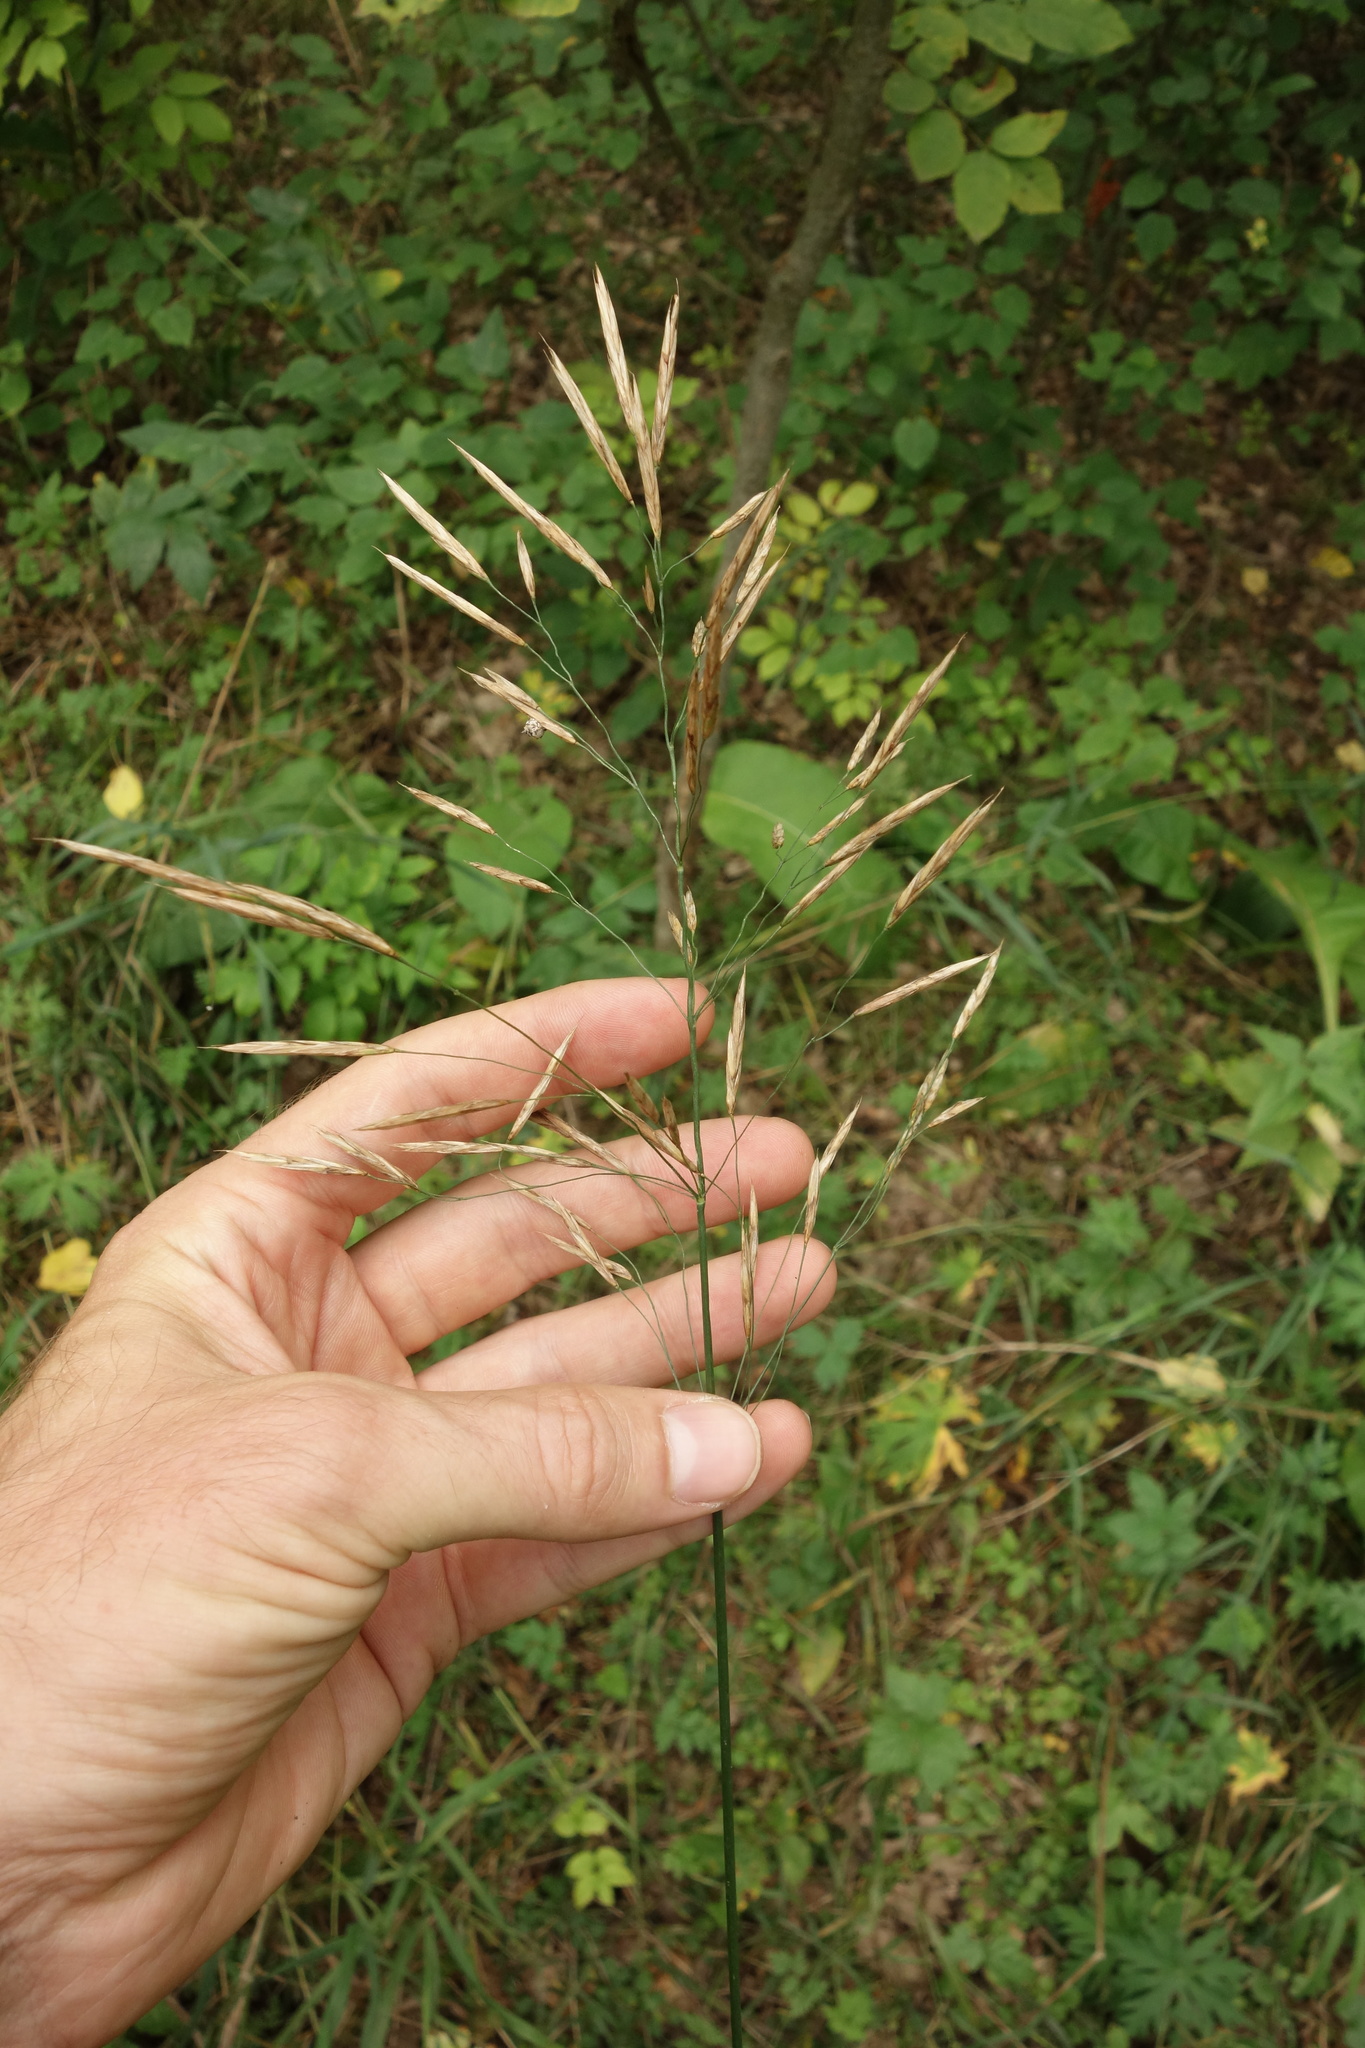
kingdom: Plantae
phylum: Tracheophyta
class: Liliopsida
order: Poales
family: Poaceae
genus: Bromus
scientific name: Bromus inermis
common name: Smooth brome
